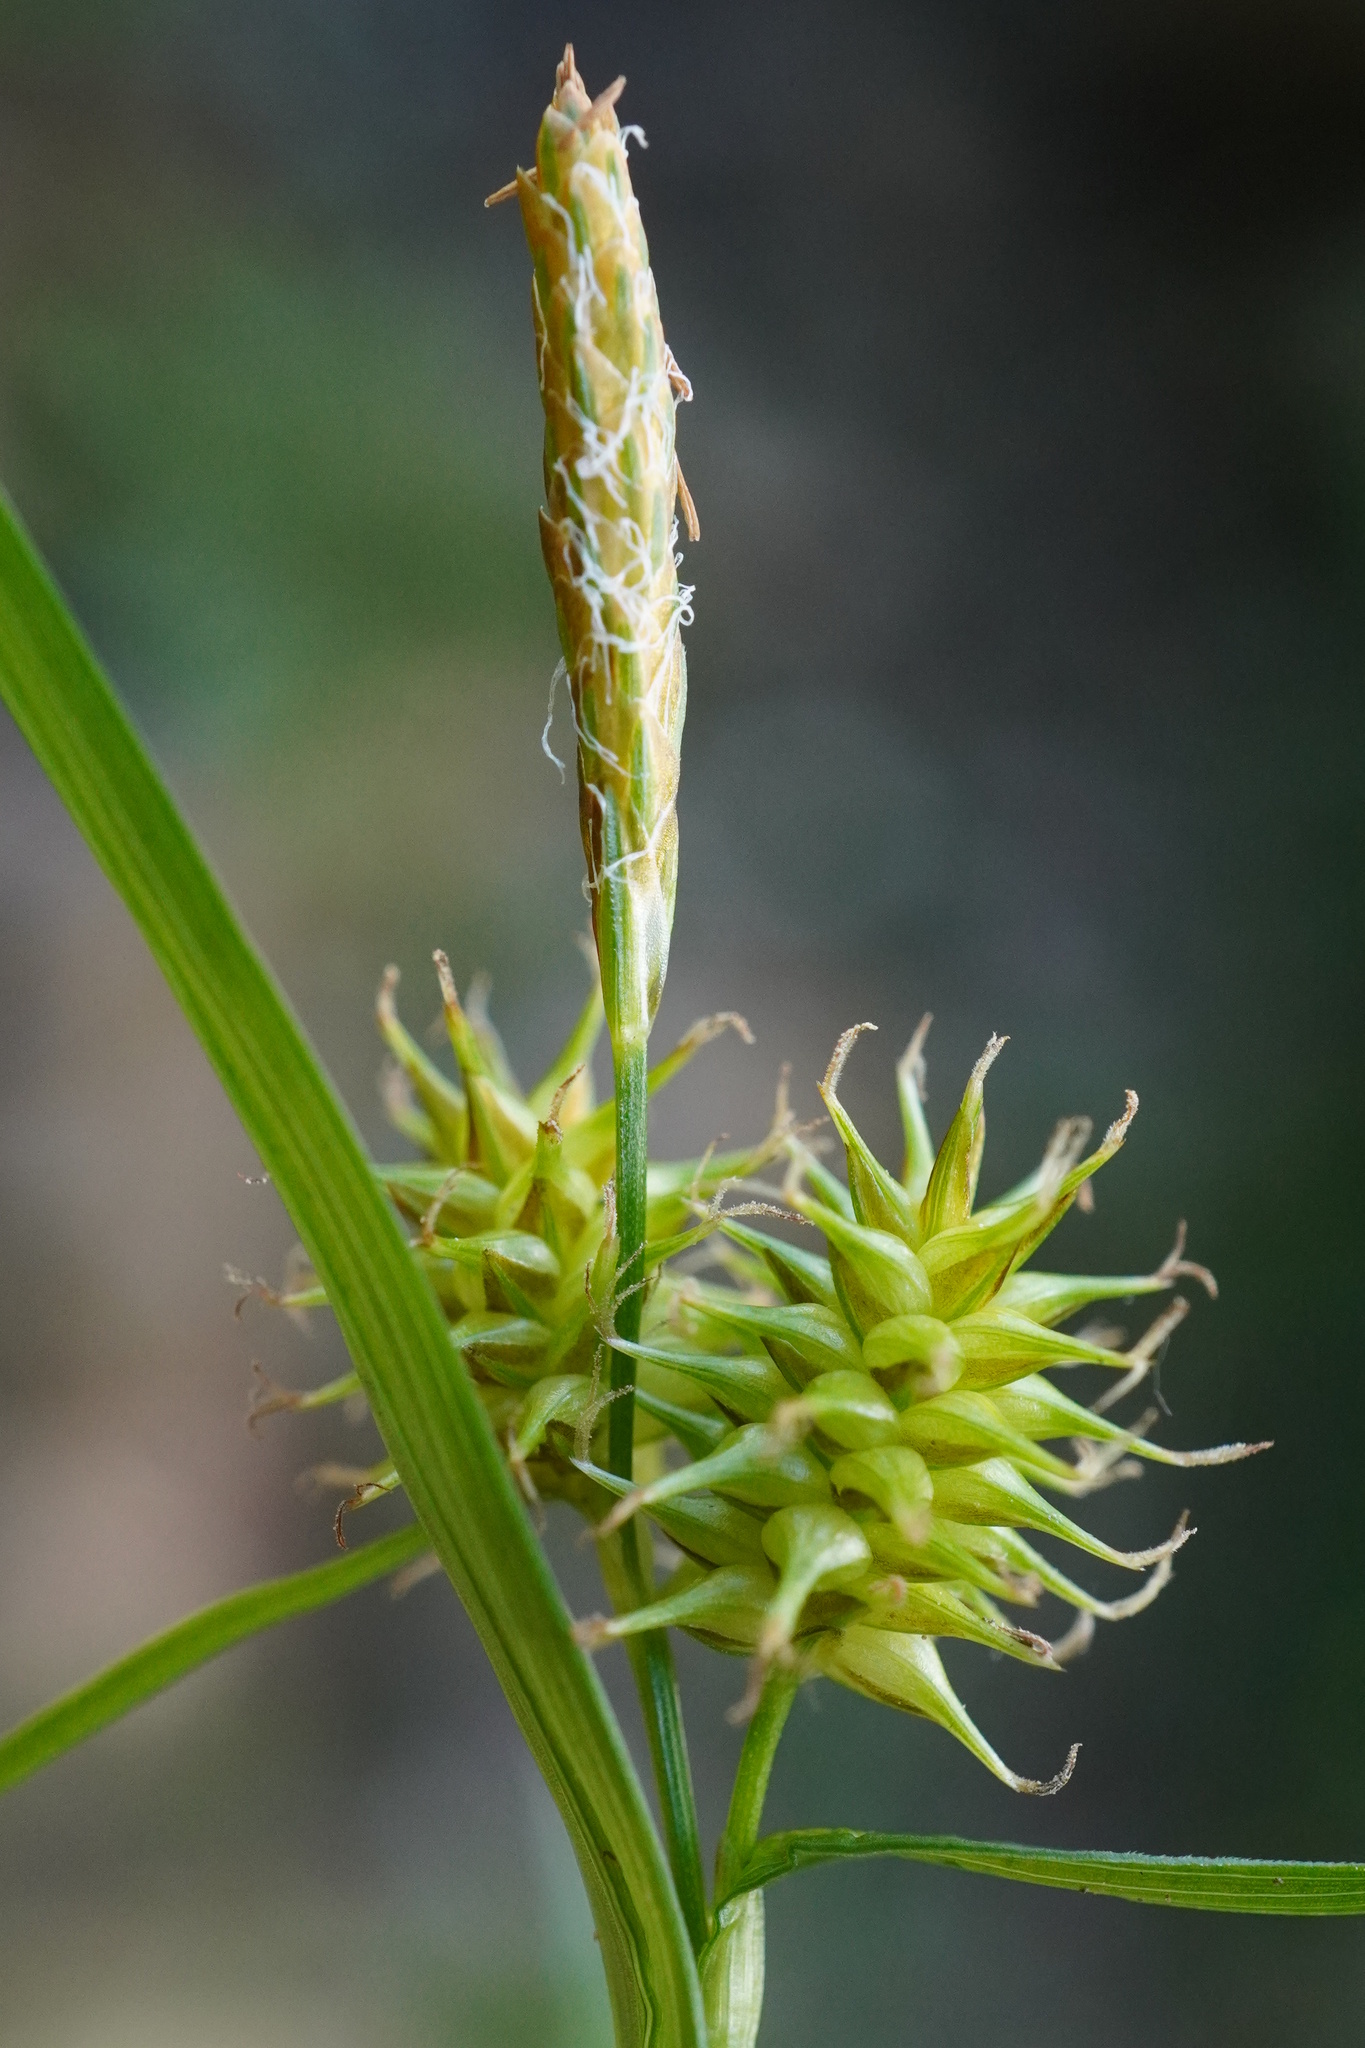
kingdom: Plantae
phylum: Tracheophyta
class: Liliopsida
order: Poales
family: Cyperaceae
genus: Carex
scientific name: Carex lepidocarpa
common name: Long-stalked yellow-sedge
